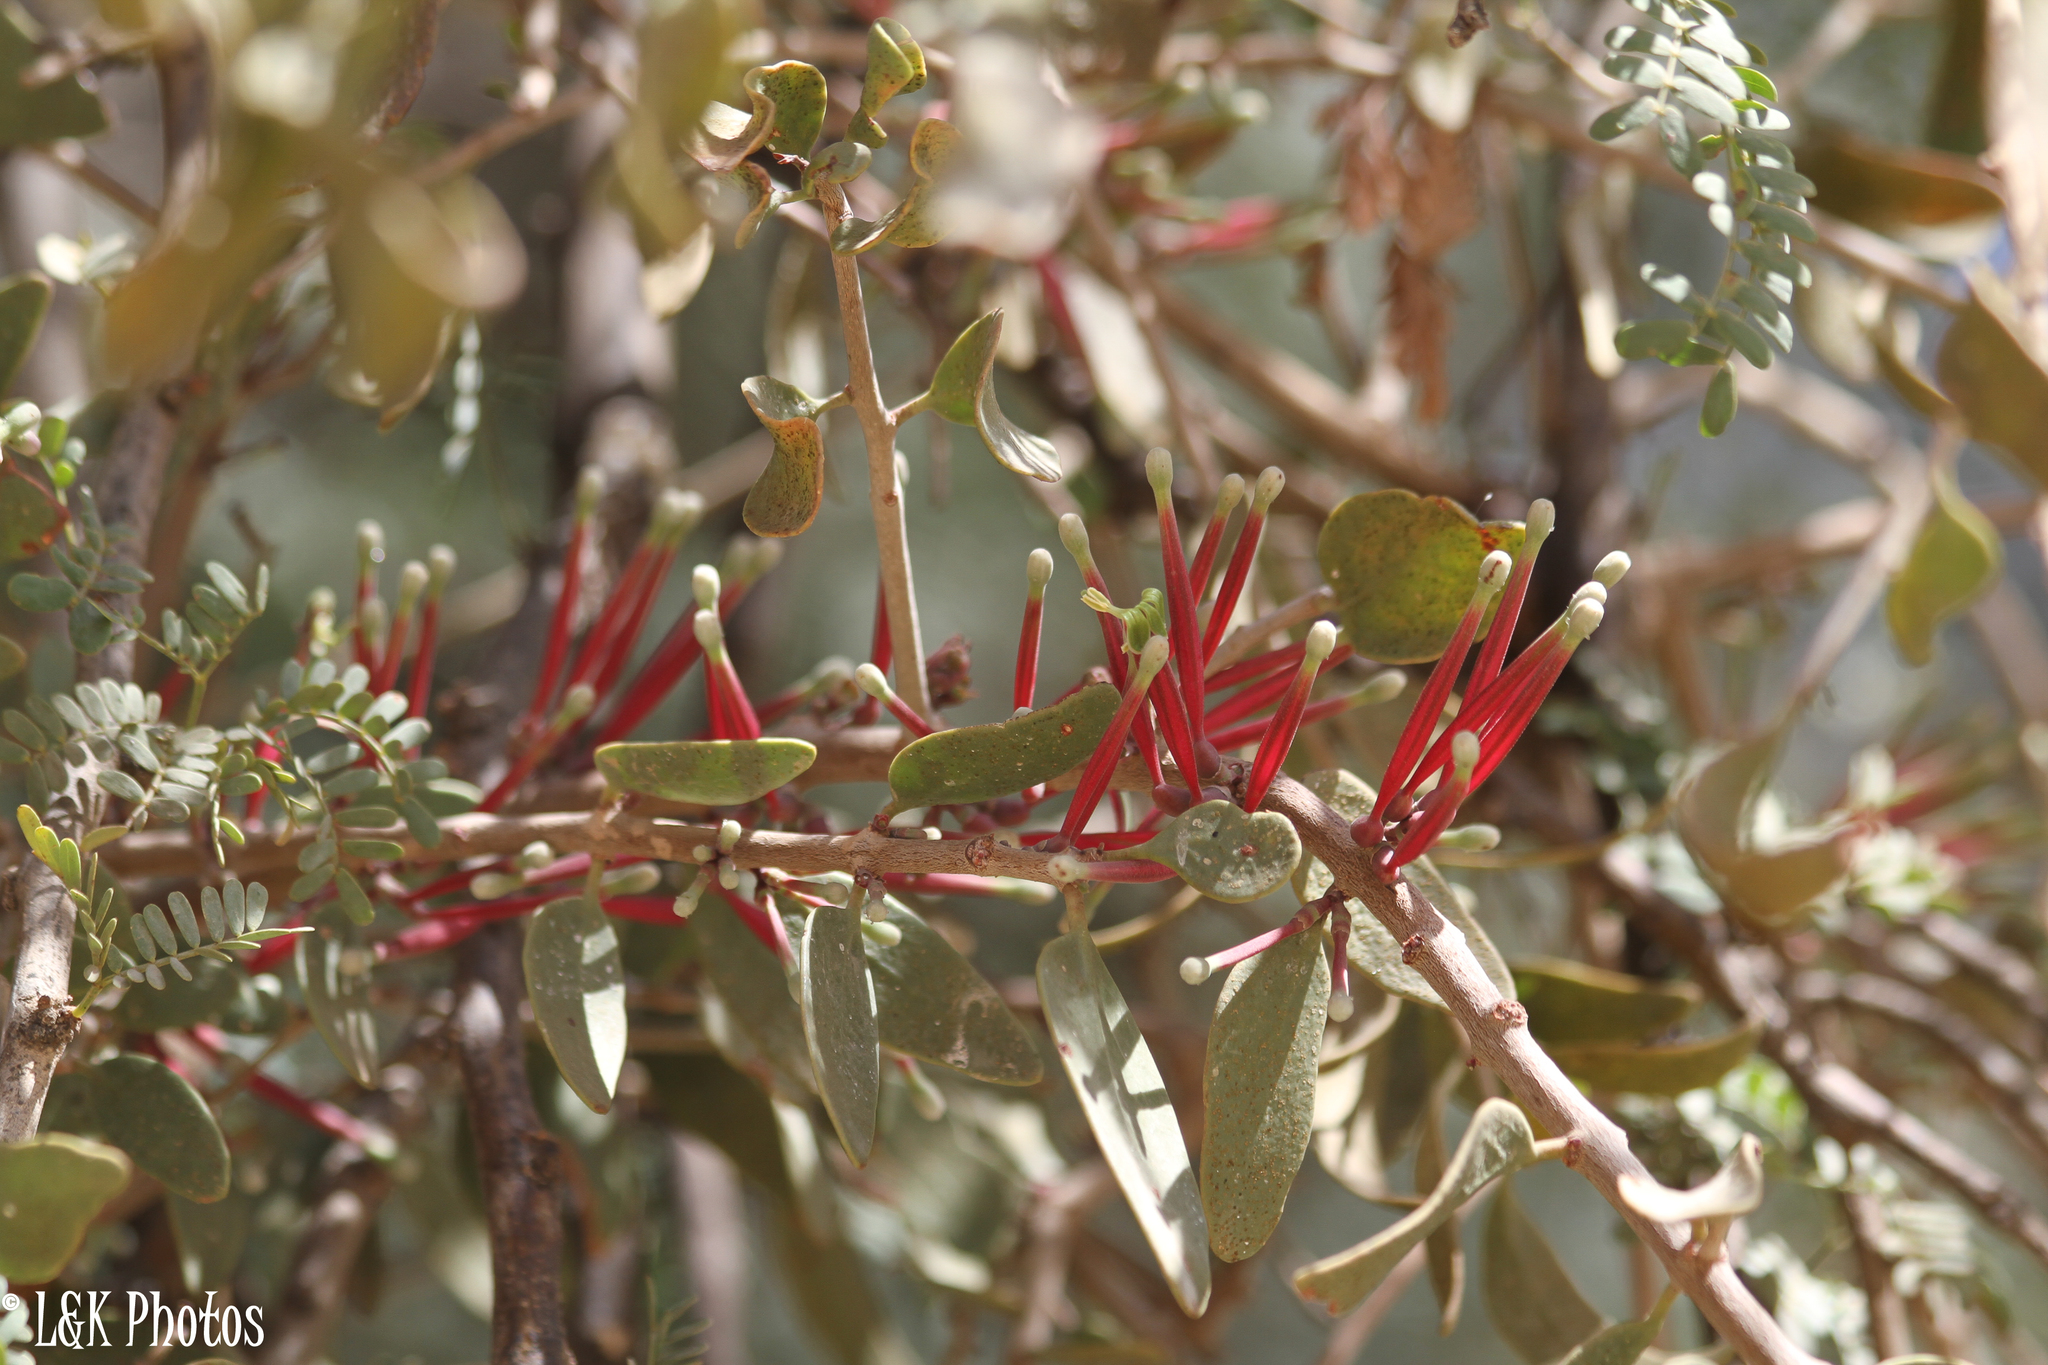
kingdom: Plantae
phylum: Tracheophyta
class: Magnoliopsida
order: Santalales
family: Loranthaceae
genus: Tapinanthus
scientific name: Tapinanthus oleifolius
